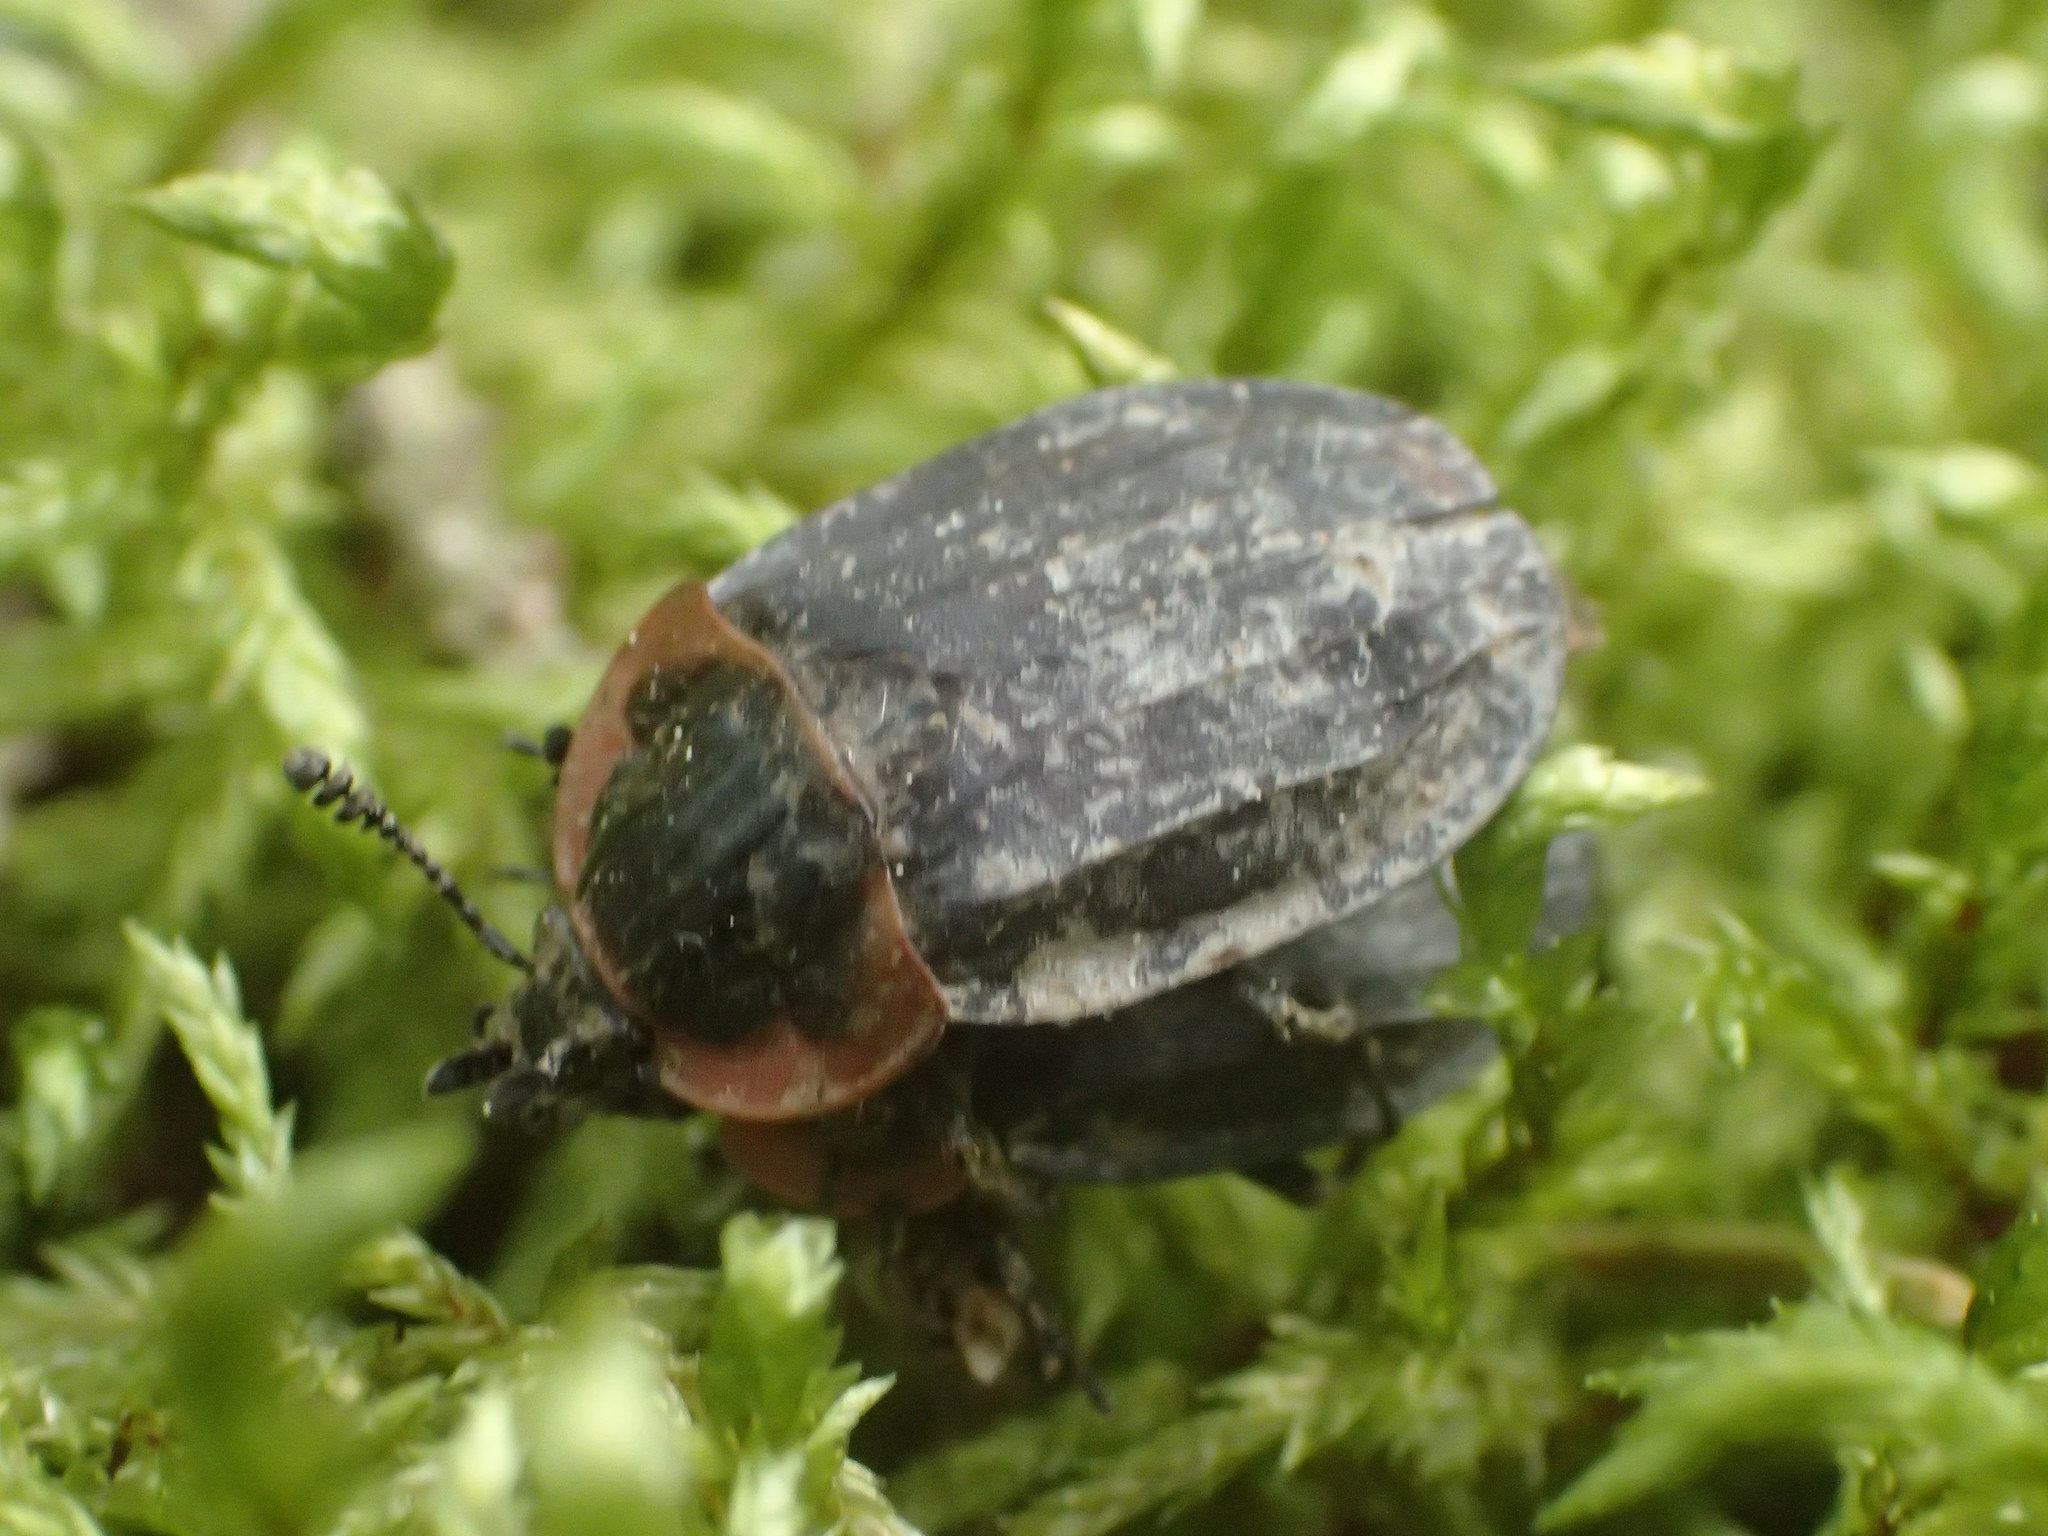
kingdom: Animalia
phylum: Arthropoda
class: Insecta
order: Coleoptera
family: Staphylinidae
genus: Oiceoptoma
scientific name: Oiceoptoma noveboracense
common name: Margined carrion beetle
